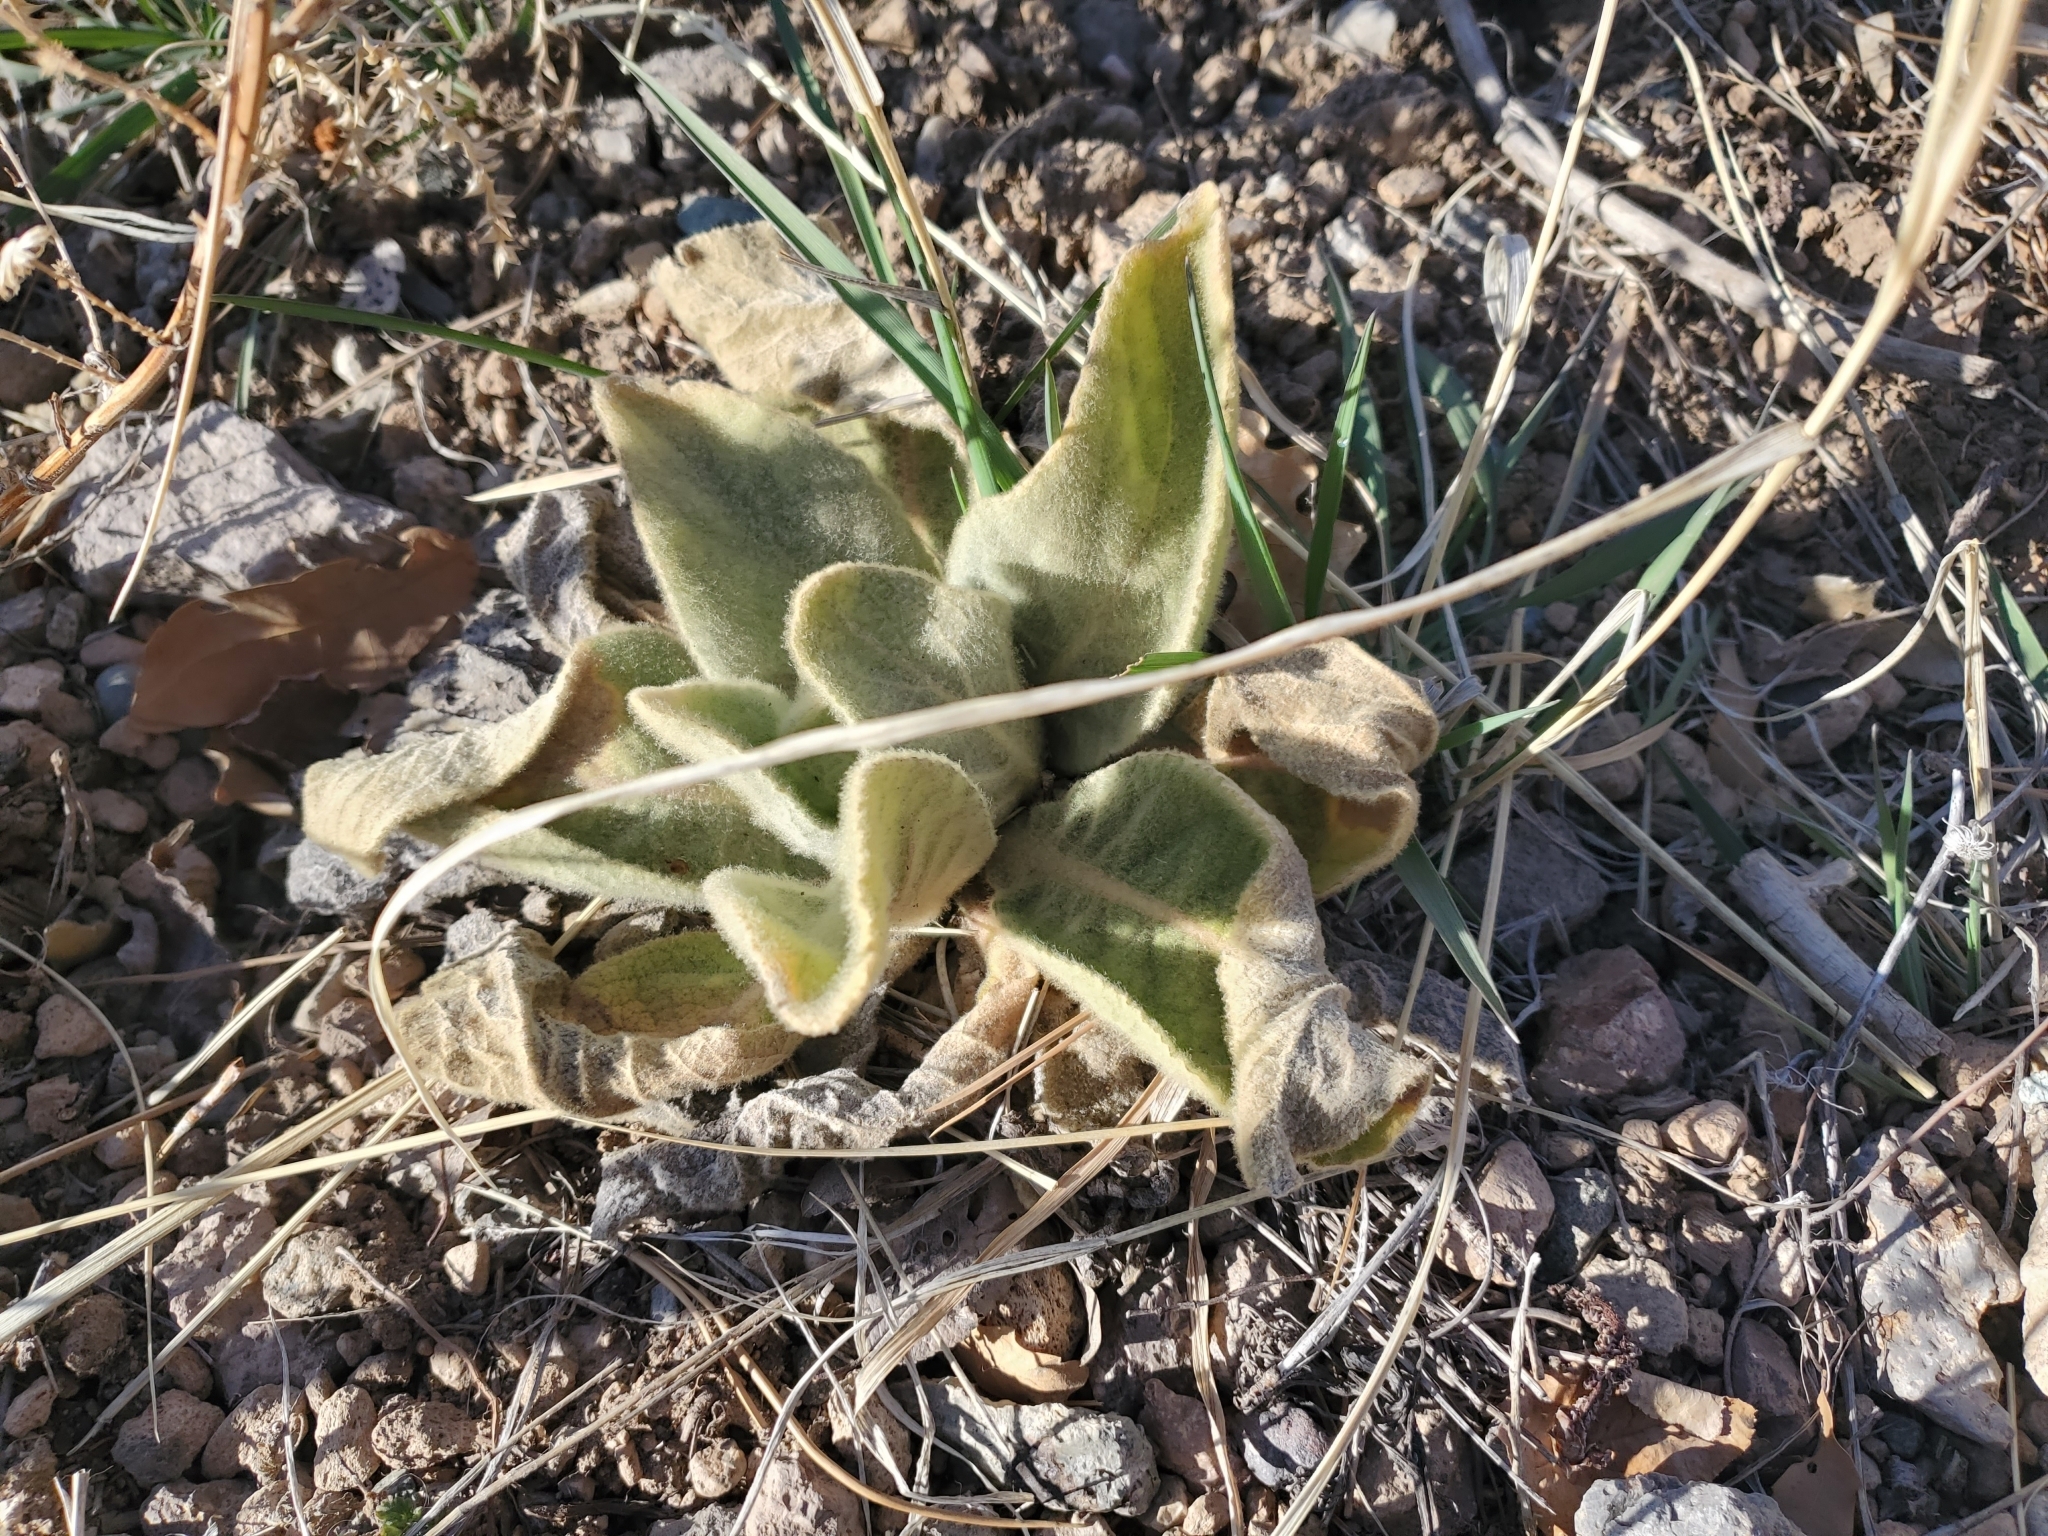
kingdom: Plantae
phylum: Tracheophyta
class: Magnoliopsida
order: Lamiales
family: Scrophulariaceae
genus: Verbascum
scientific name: Verbascum thapsus
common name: Common mullein
